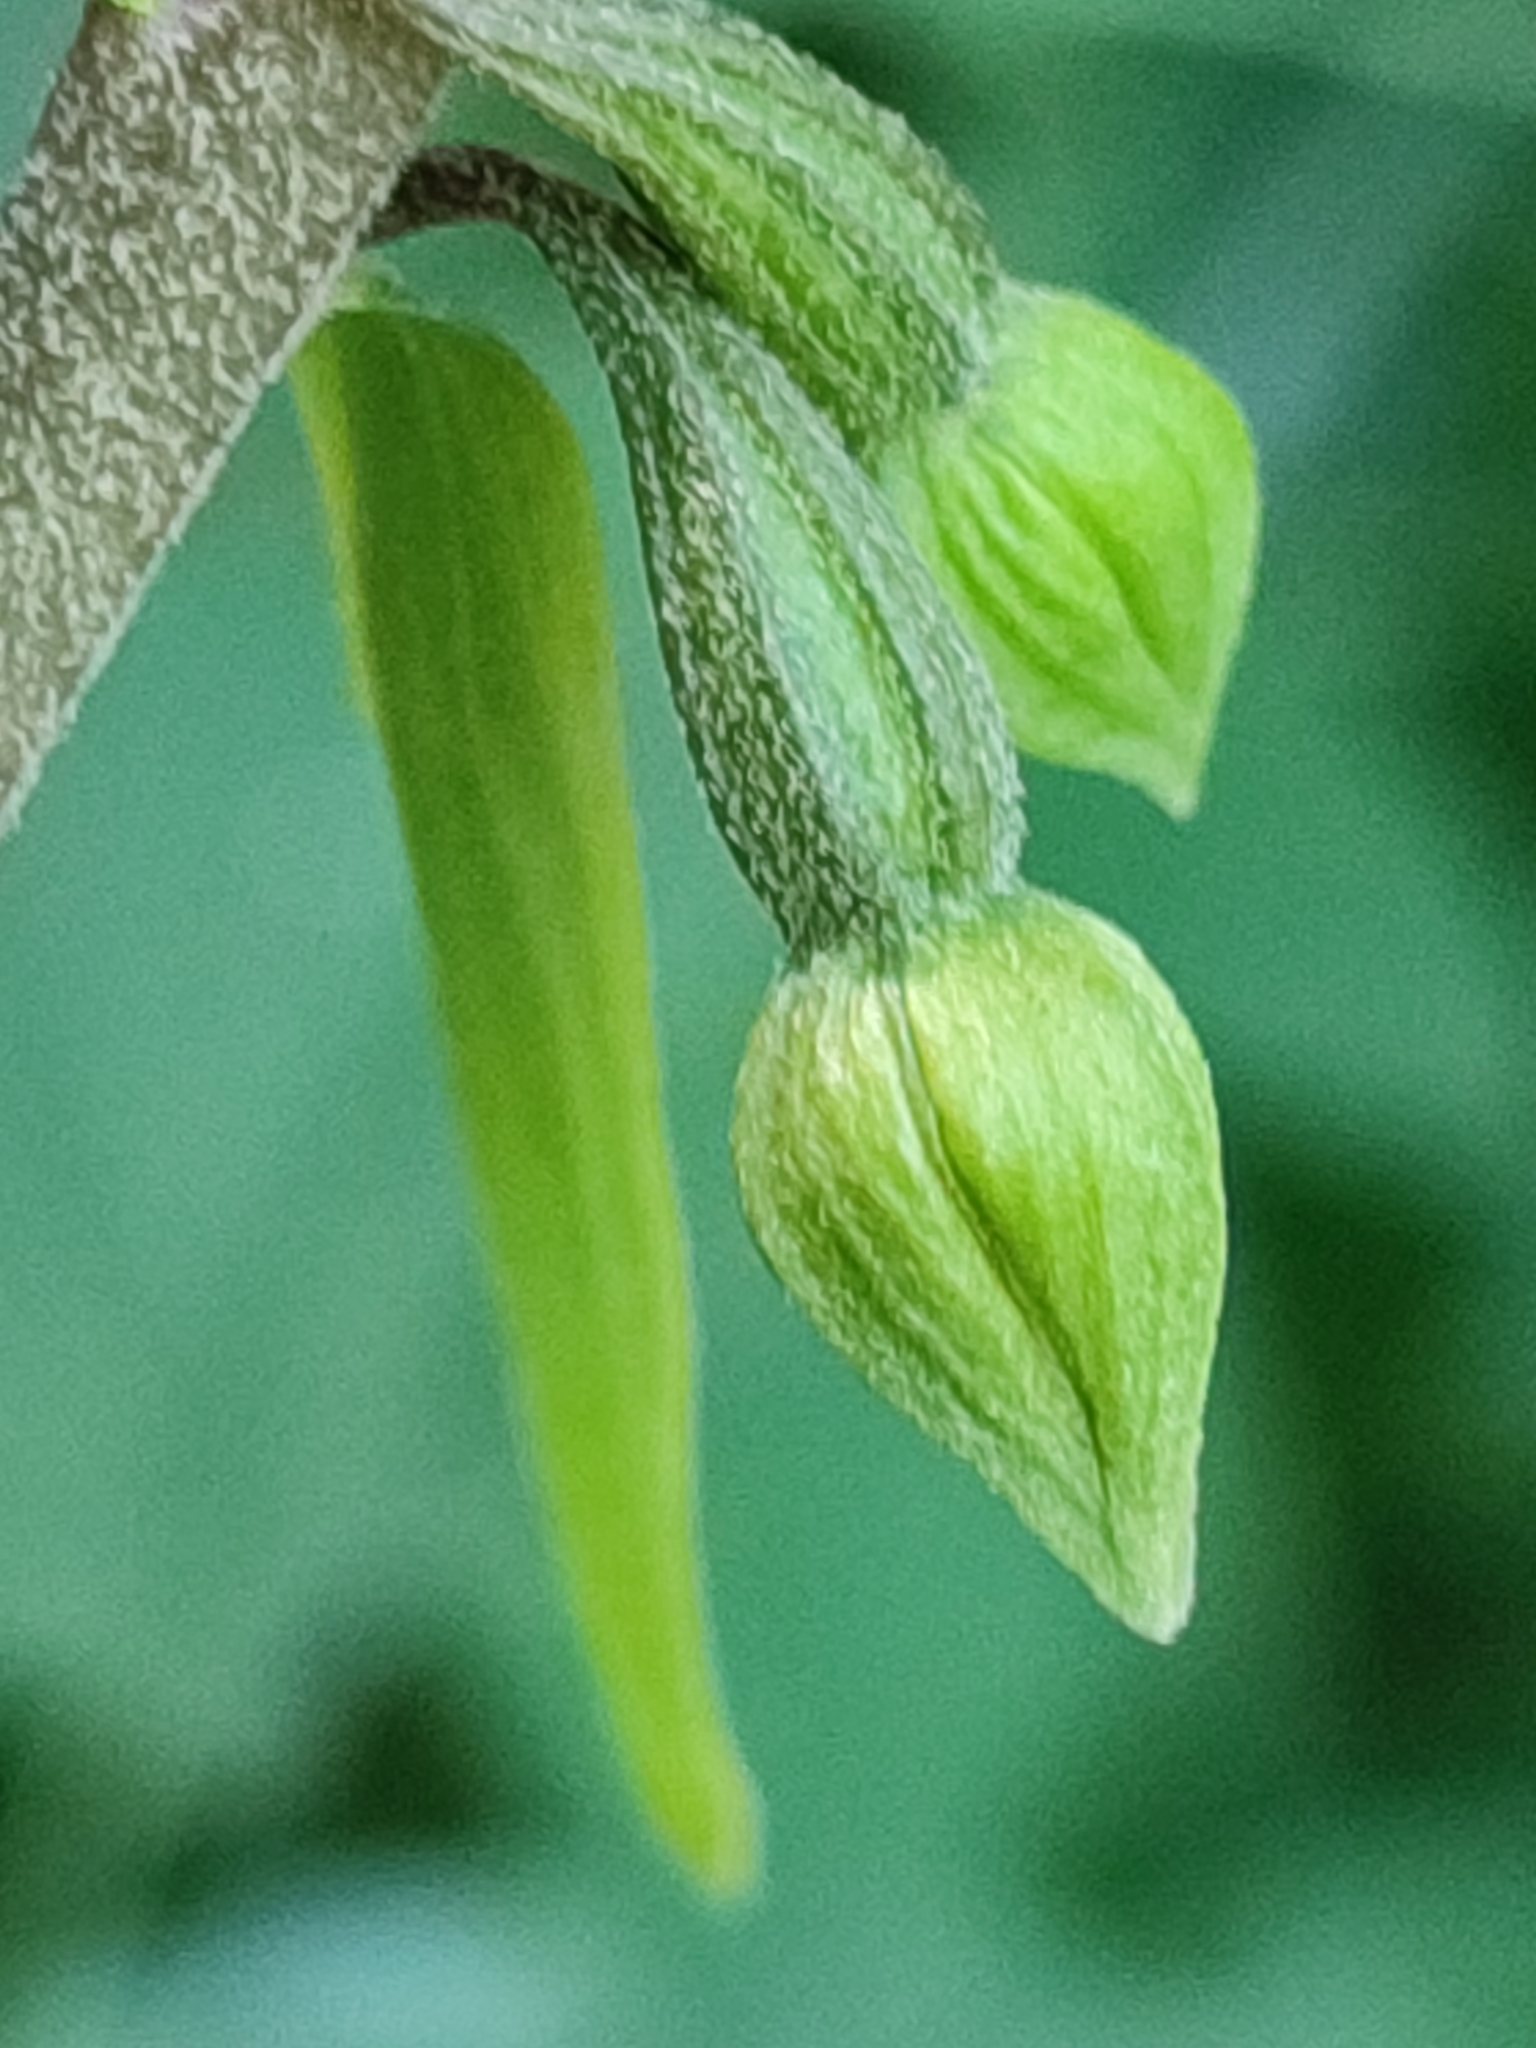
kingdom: Plantae
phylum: Tracheophyta
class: Liliopsida
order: Asparagales
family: Orchidaceae
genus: Epipactis
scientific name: Epipactis helleborine
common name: Broad-leaved helleborine
